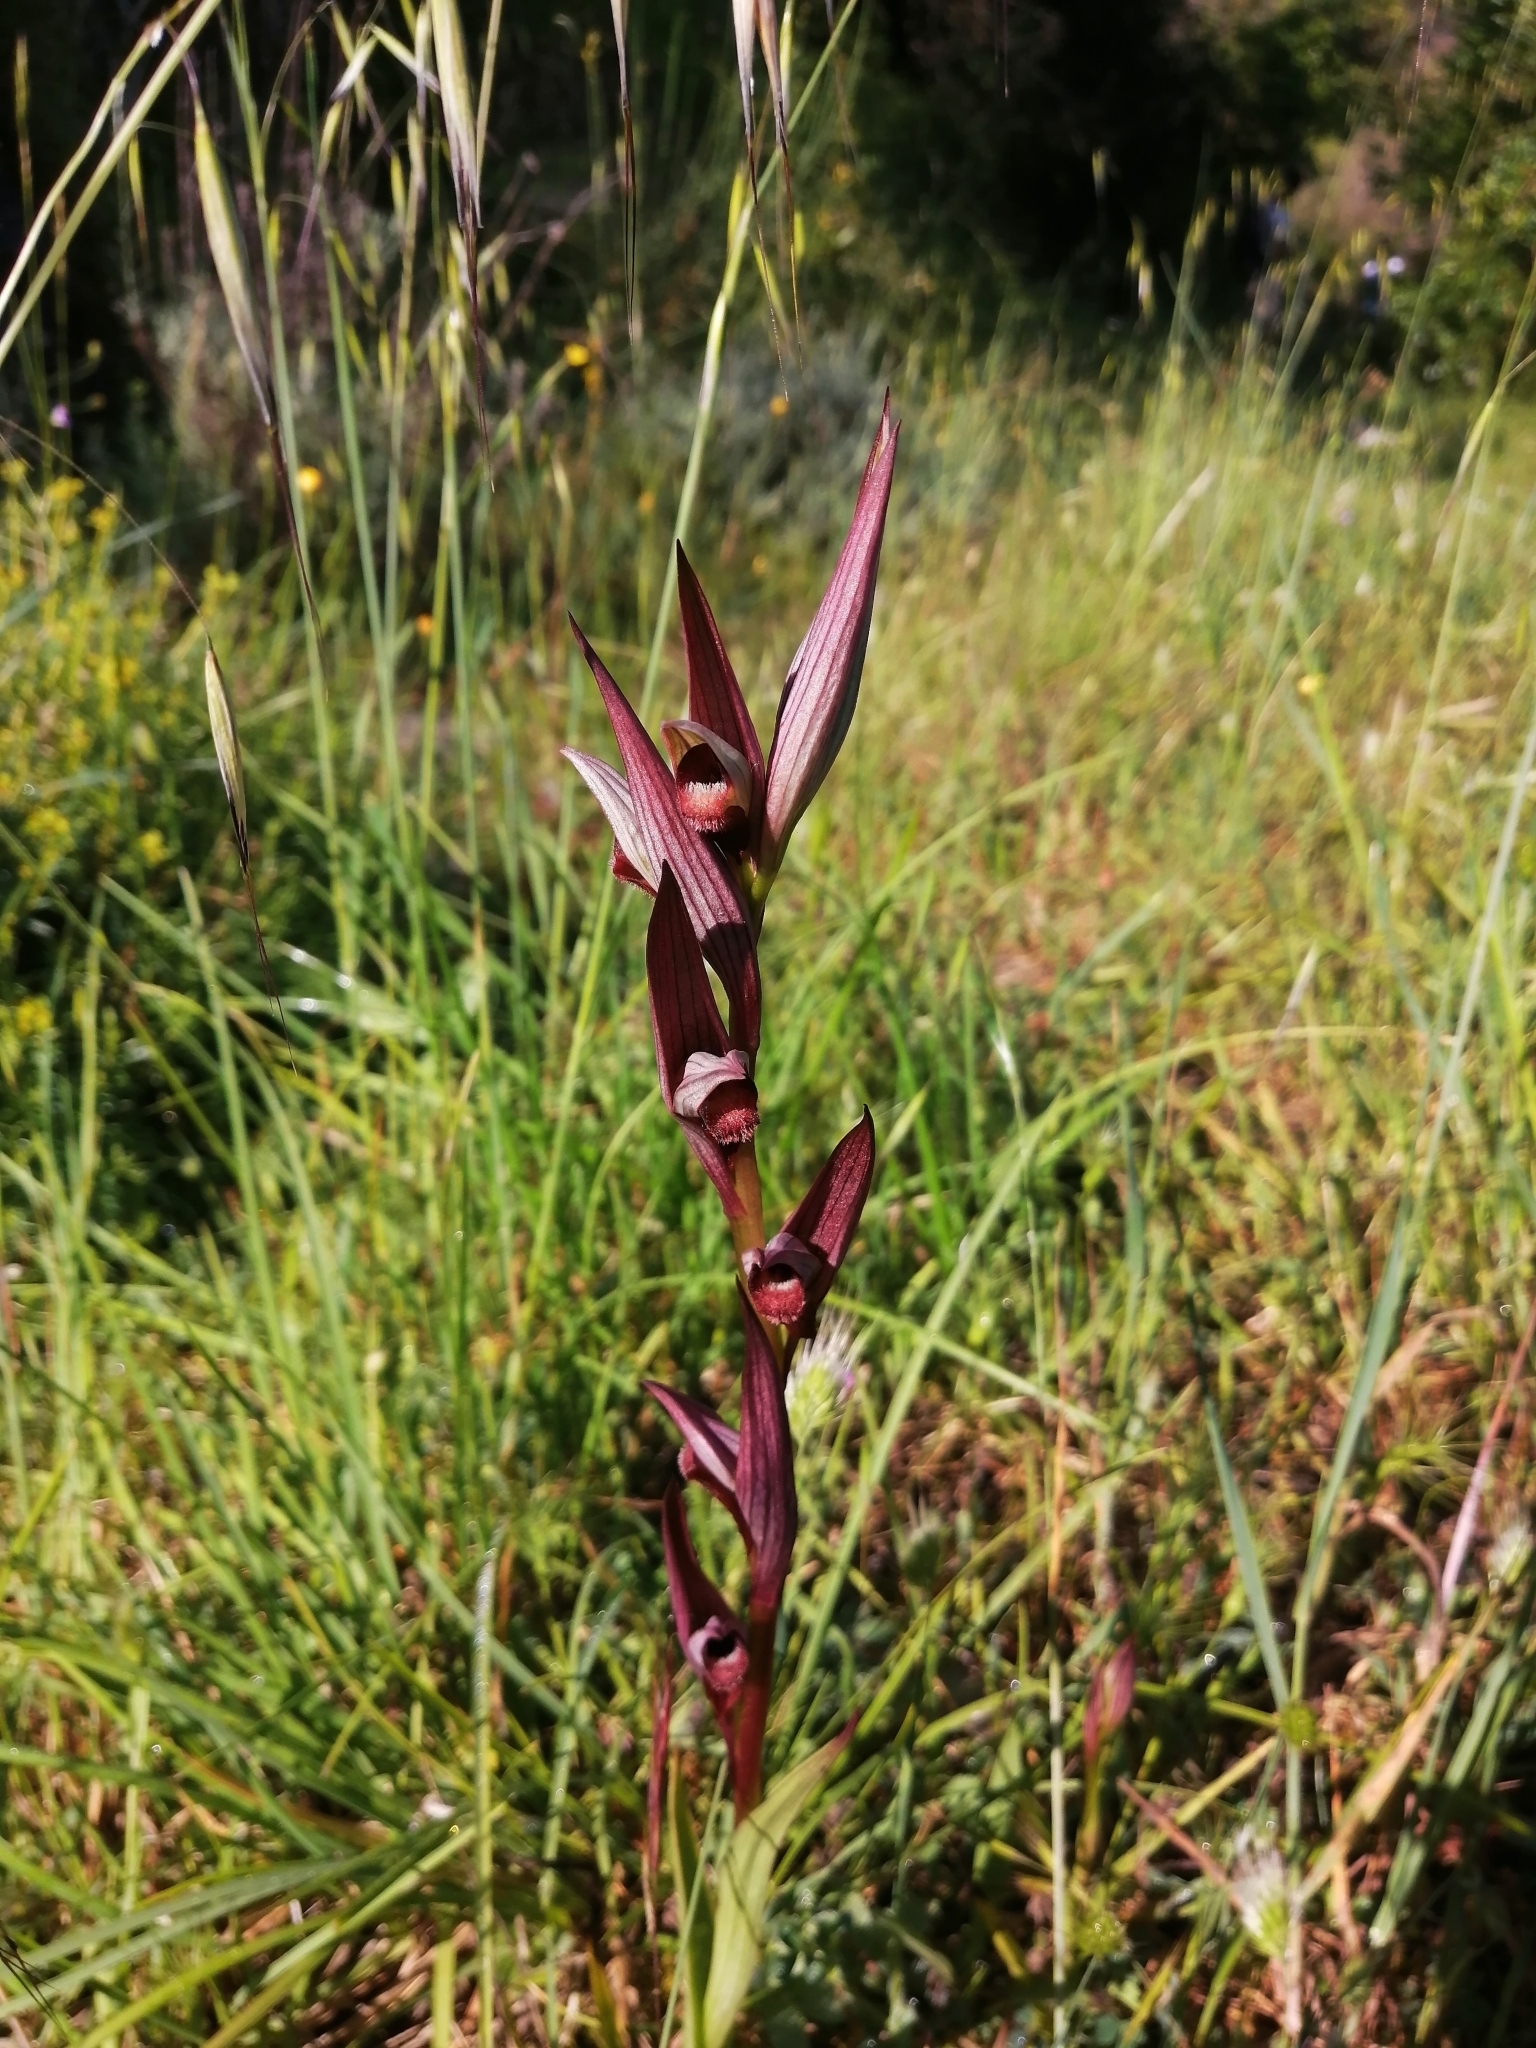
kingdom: Plantae
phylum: Tracheophyta
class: Liliopsida
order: Asparagales
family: Orchidaceae
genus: Serapias
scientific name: Serapias vomeracea
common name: Long-lipped tongue-orchid
